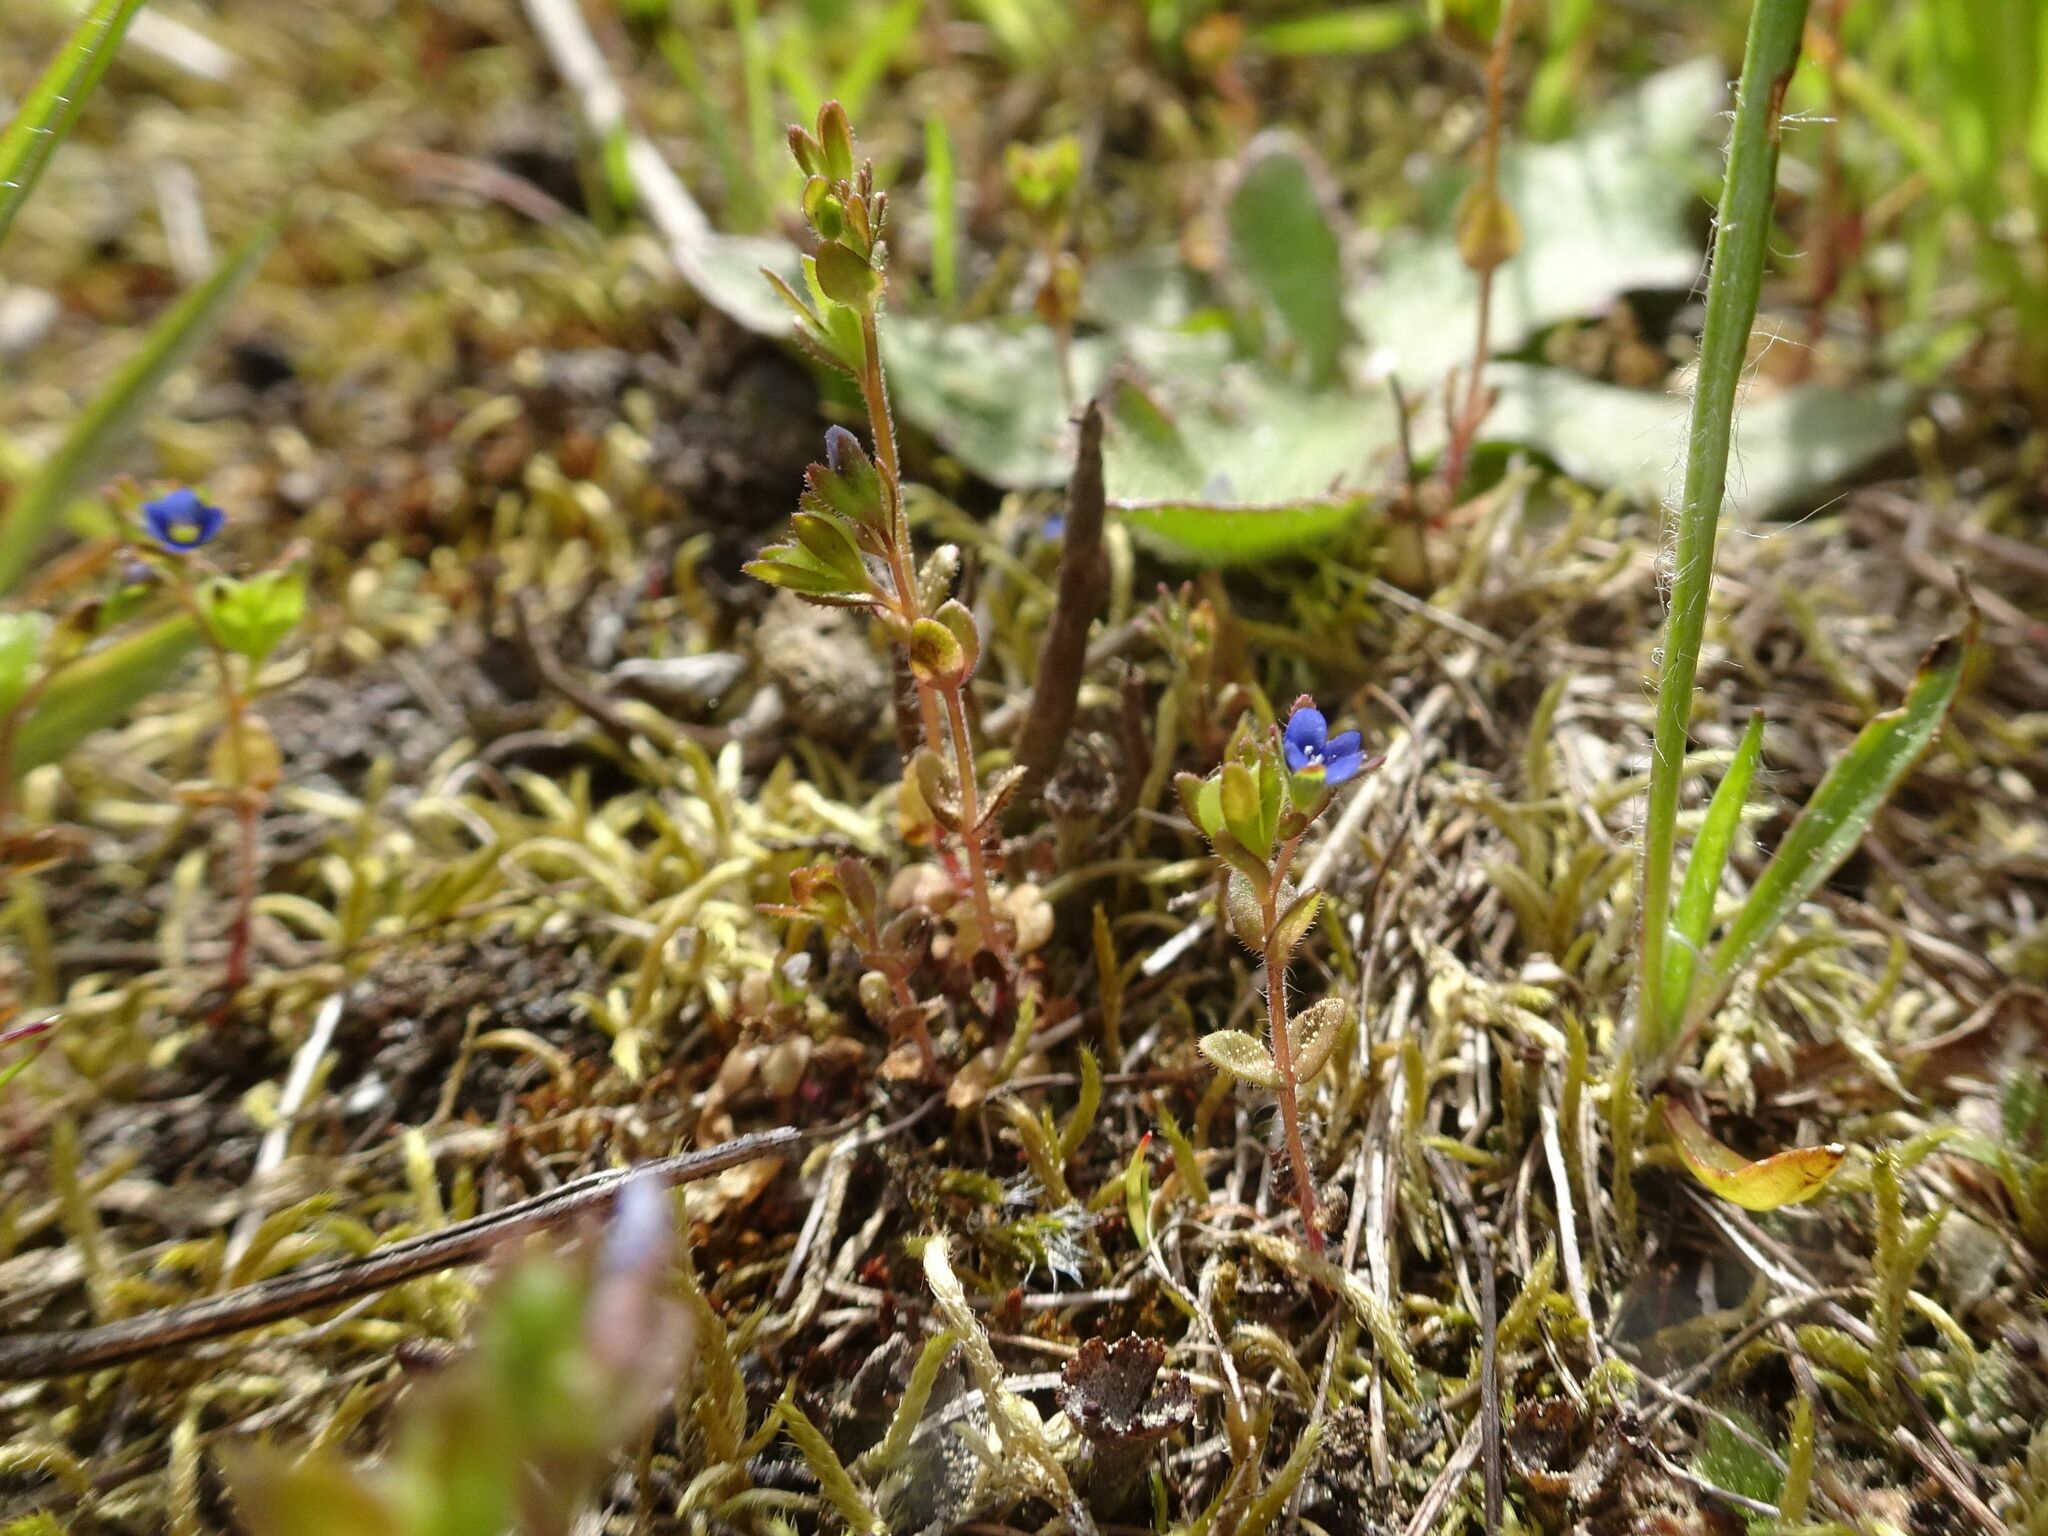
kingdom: Plantae
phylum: Tracheophyta
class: Magnoliopsida
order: Lamiales
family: Plantaginaceae
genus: Veronica
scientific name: Veronica arvensis
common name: Corn speedwell
